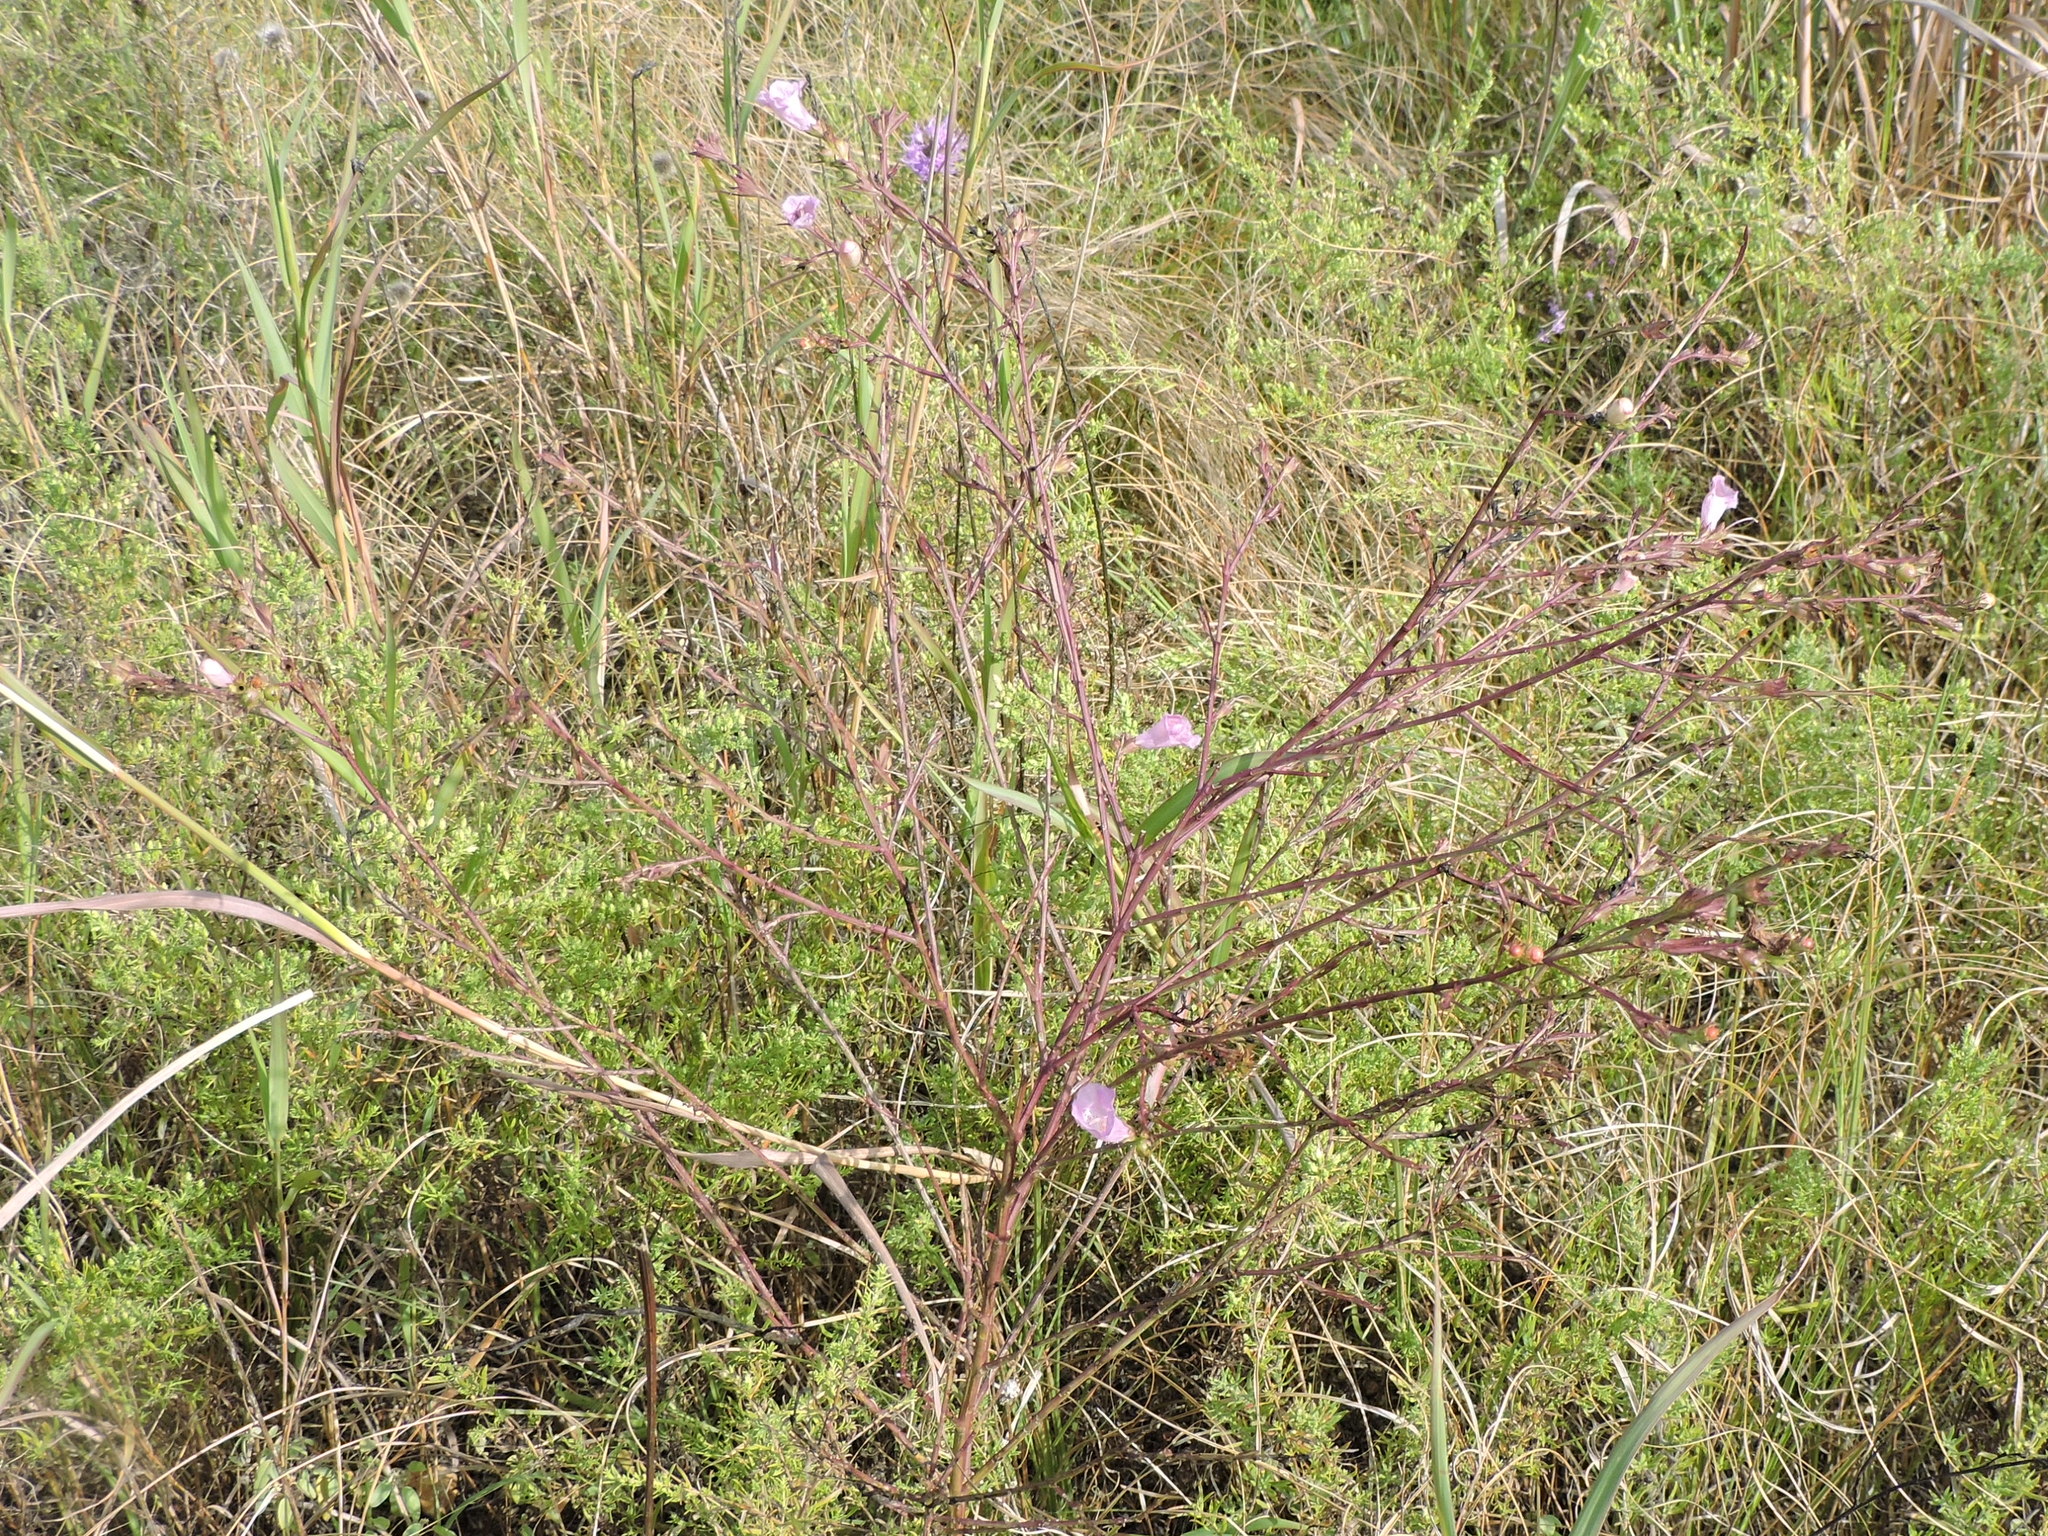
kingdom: Plantae
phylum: Tracheophyta
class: Magnoliopsida
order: Lamiales
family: Orobanchaceae
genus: Agalinis
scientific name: Agalinis heterophylla
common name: Prairie agalinis
